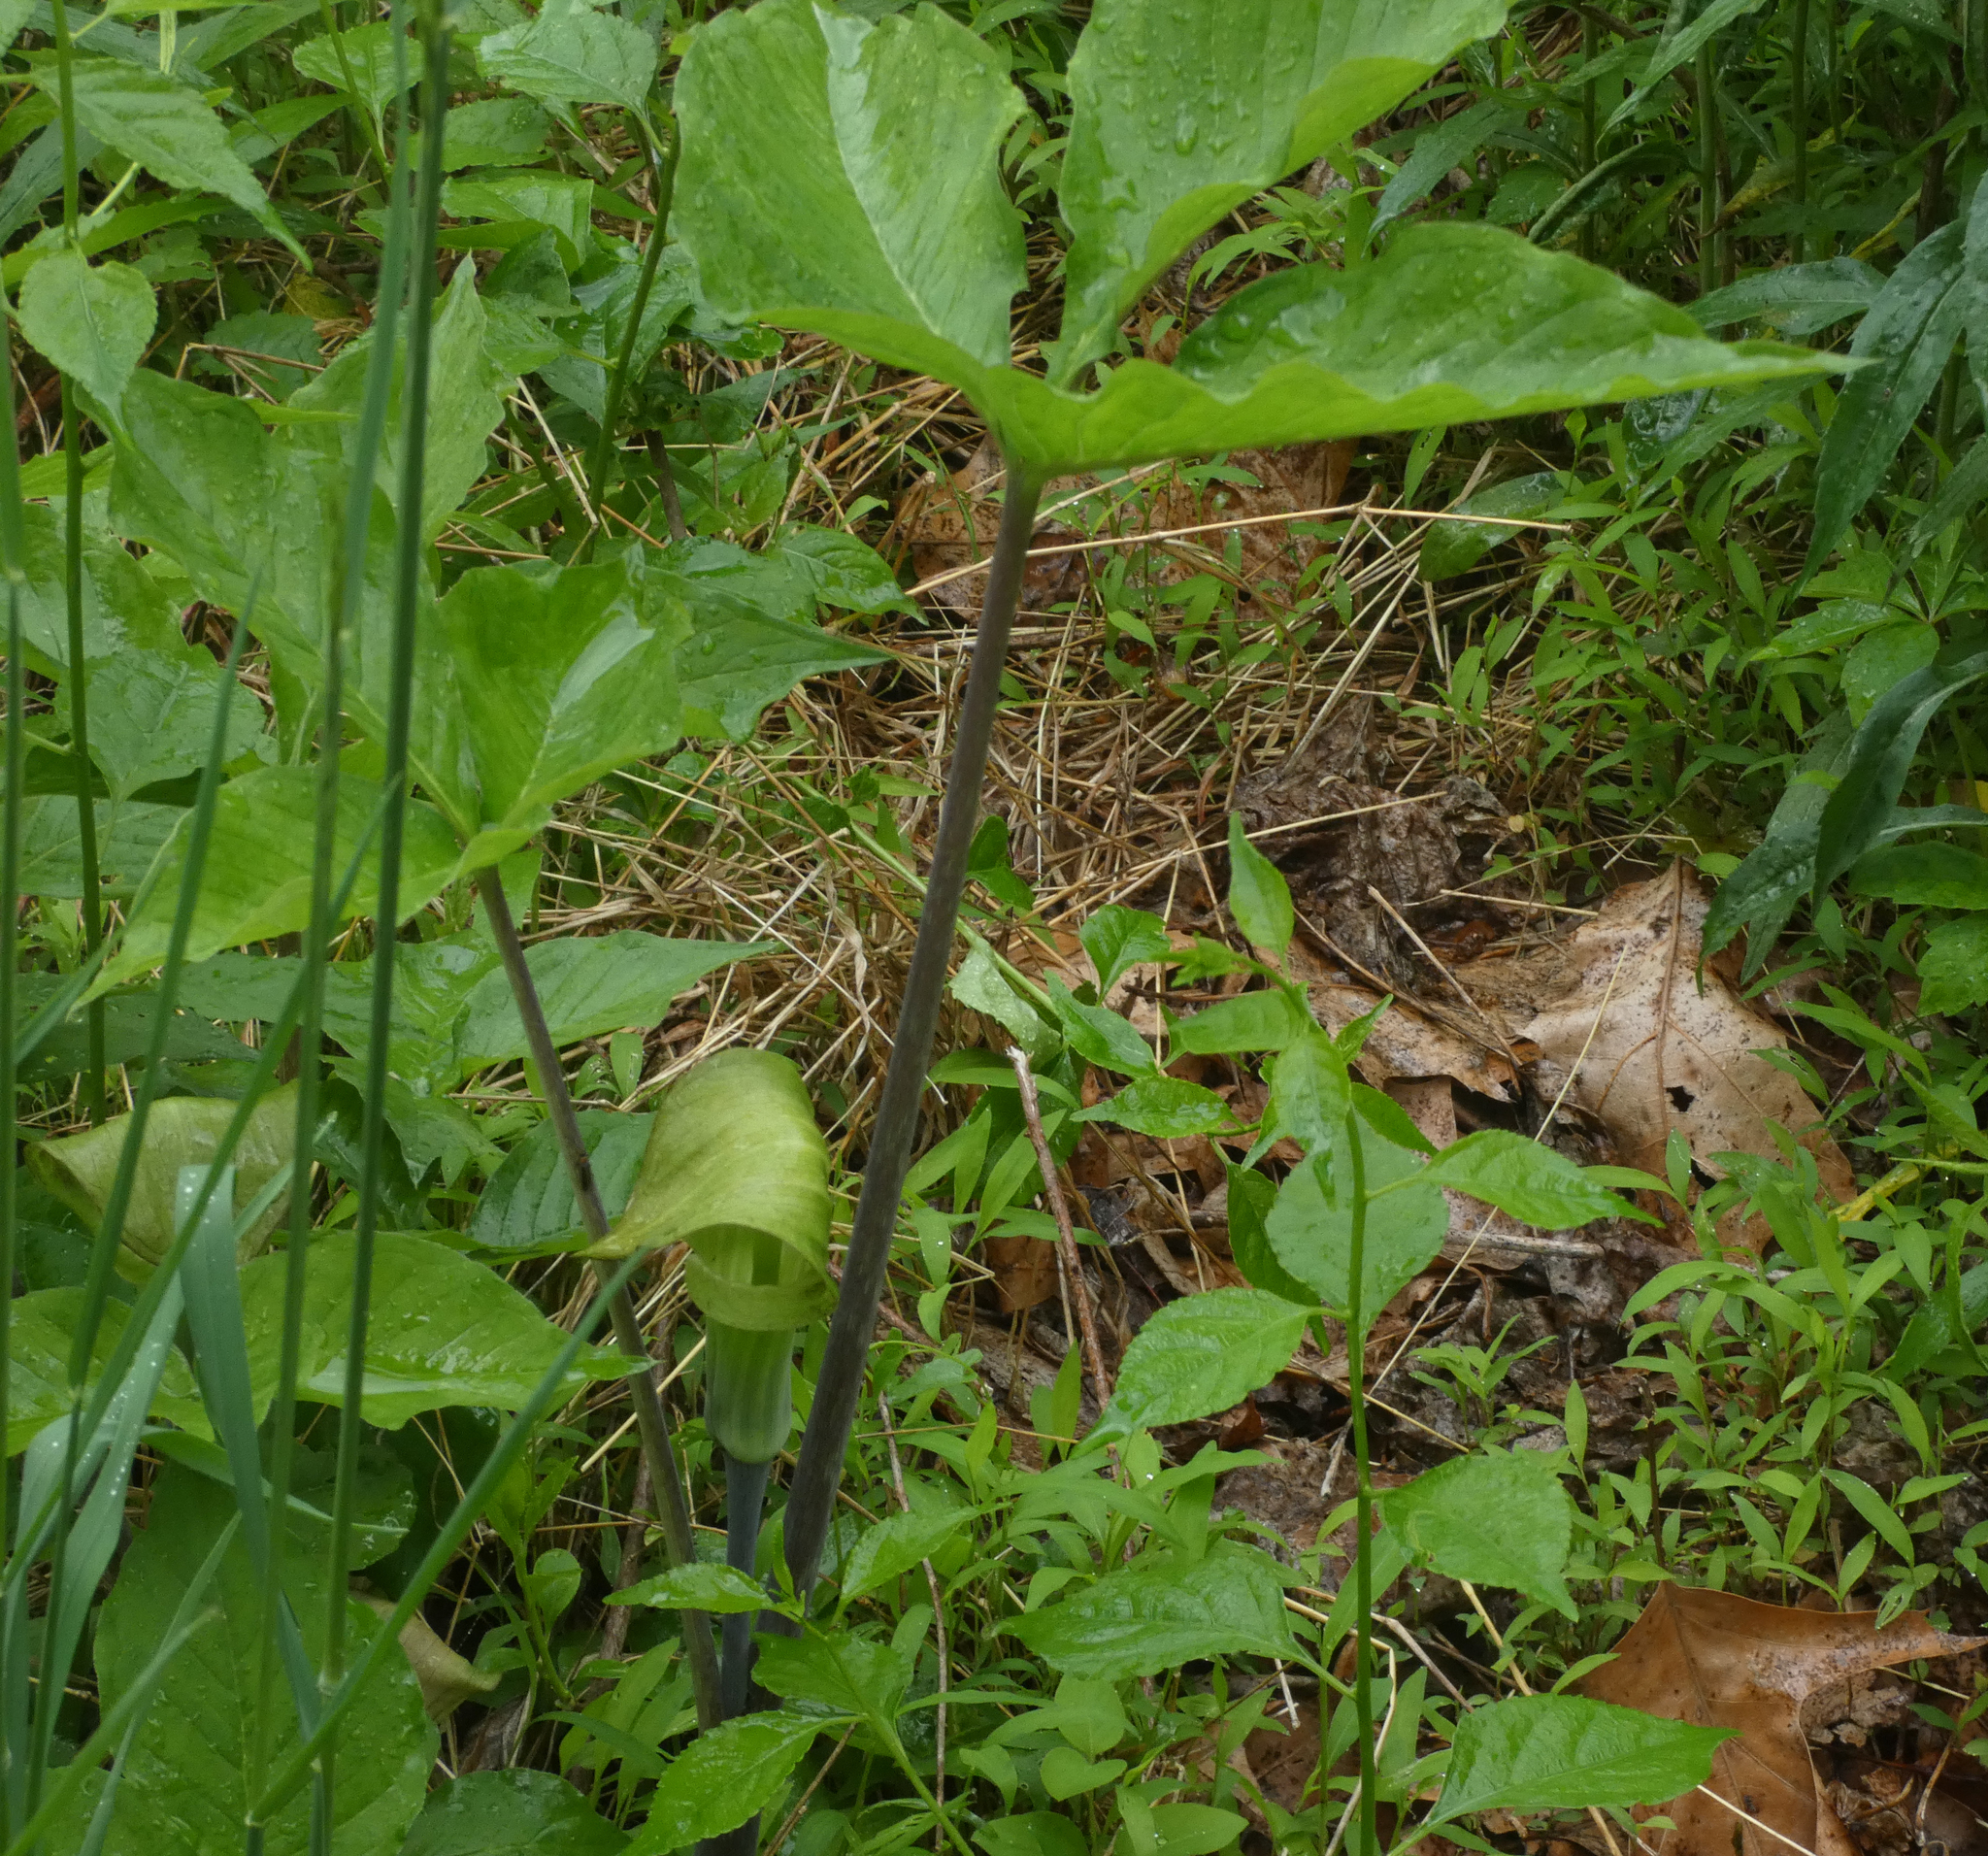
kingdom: Plantae
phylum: Tracheophyta
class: Liliopsida
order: Alismatales
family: Araceae
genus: Arisaema
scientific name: Arisaema triphyllum
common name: Jack-in-the-pulpit
